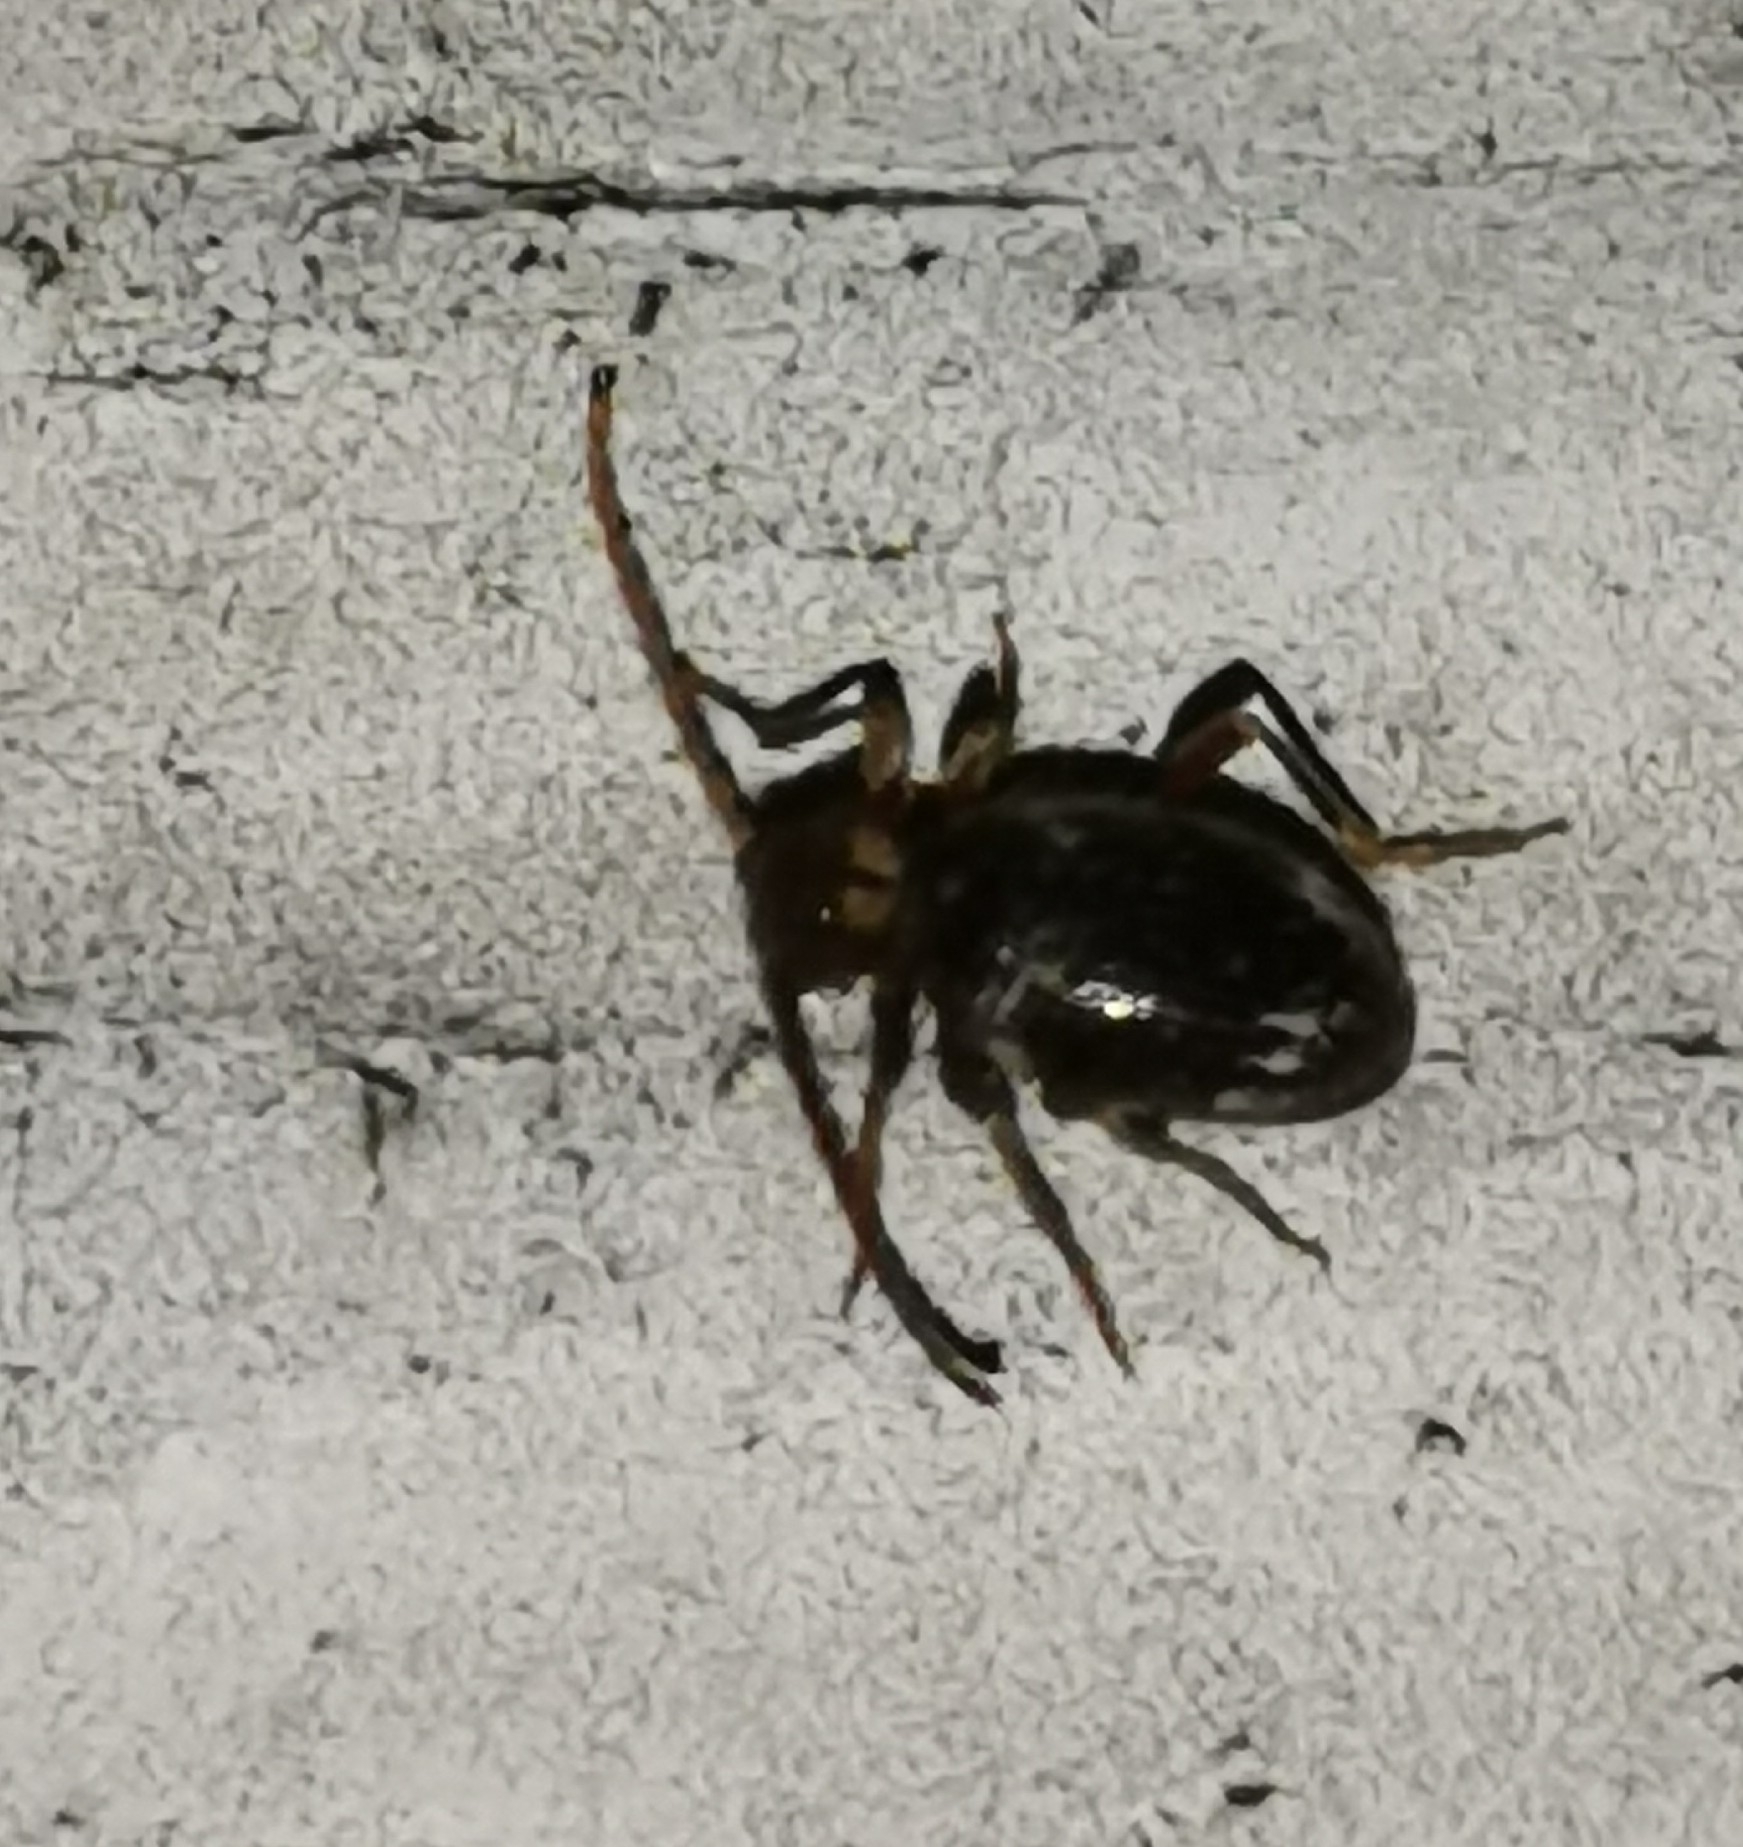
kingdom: Animalia
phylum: Arthropoda
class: Insecta
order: Coleoptera
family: Ptinidae
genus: Ptinus
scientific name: Ptinus raptor
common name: Eastern spider beetle
